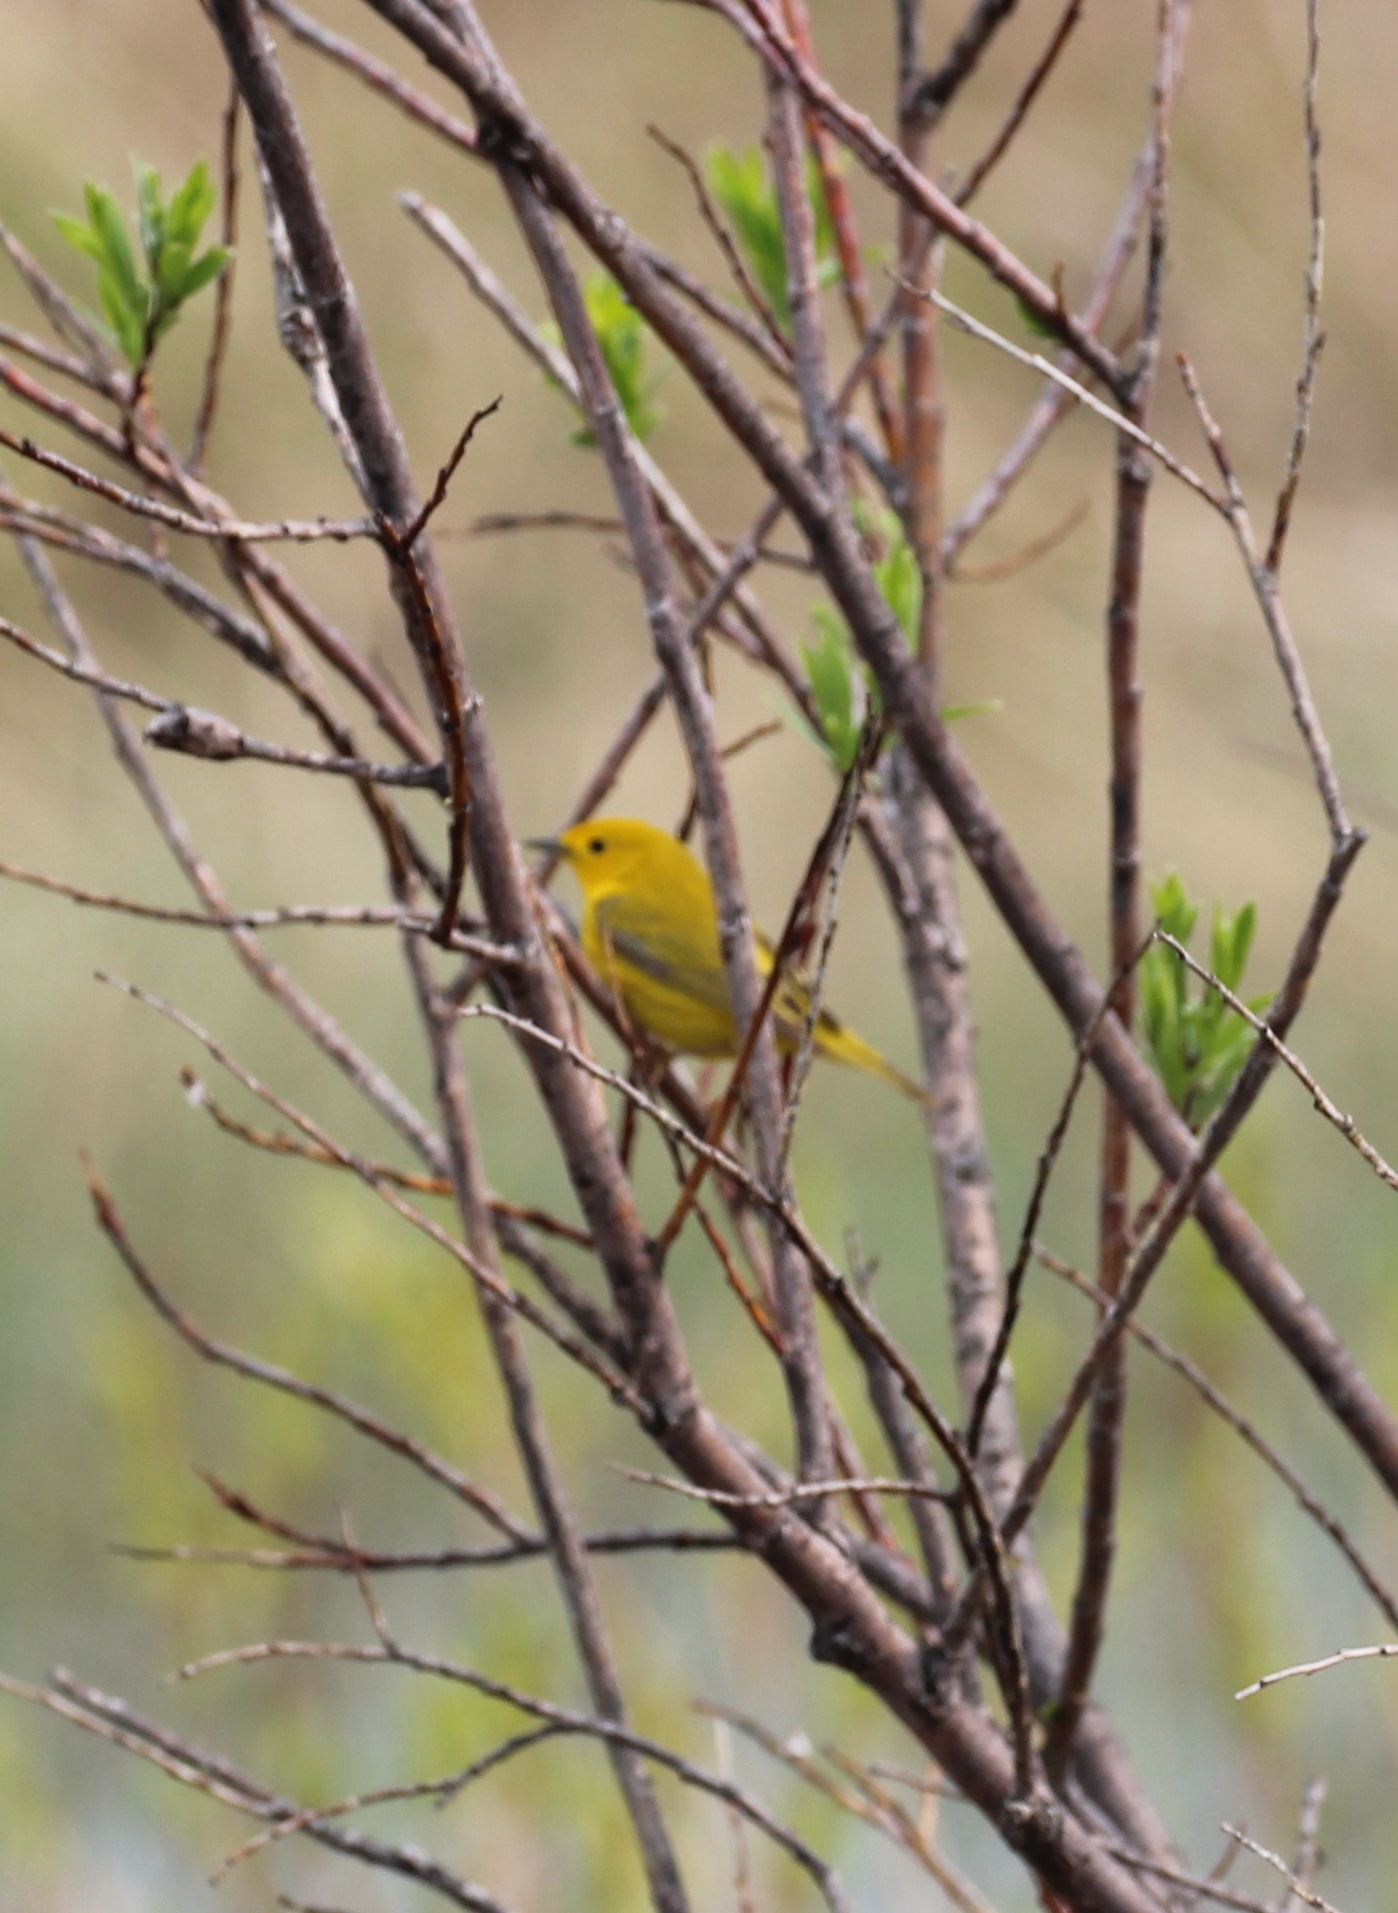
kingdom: Animalia
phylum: Chordata
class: Aves
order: Passeriformes
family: Parulidae
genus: Setophaga
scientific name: Setophaga petechia
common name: Yellow warbler
